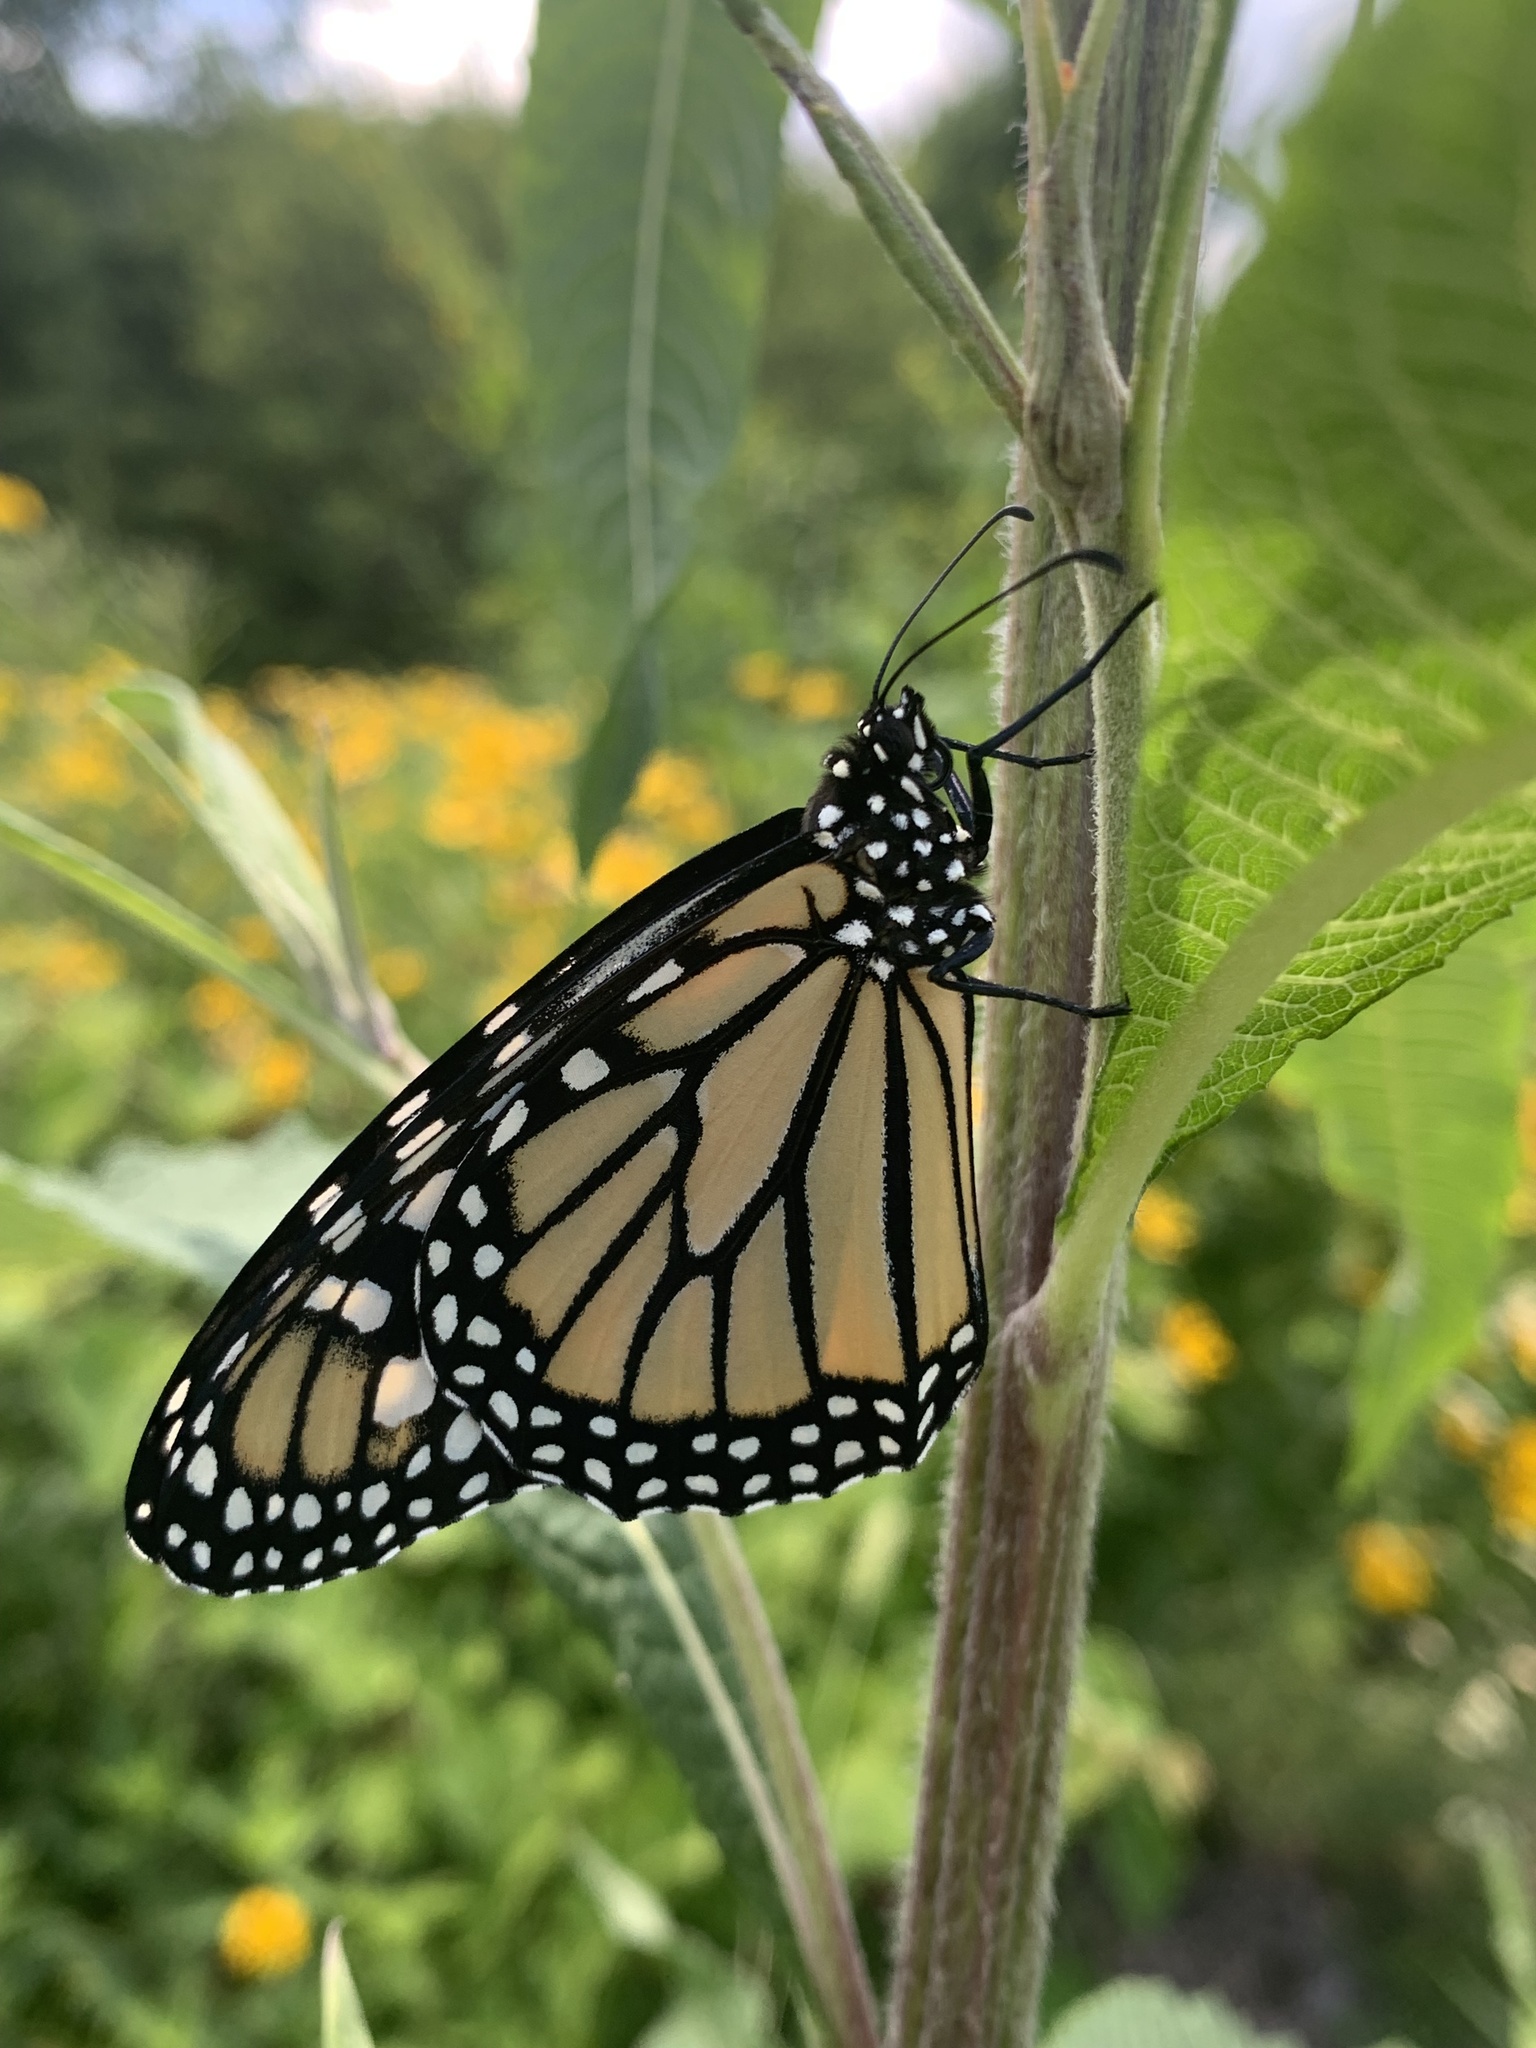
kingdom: Animalia
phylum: Arthropoda
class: Insecta
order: Lepidoptera
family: Nymphalidae
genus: Danaus
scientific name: Danaus plexippus
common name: Monarch
